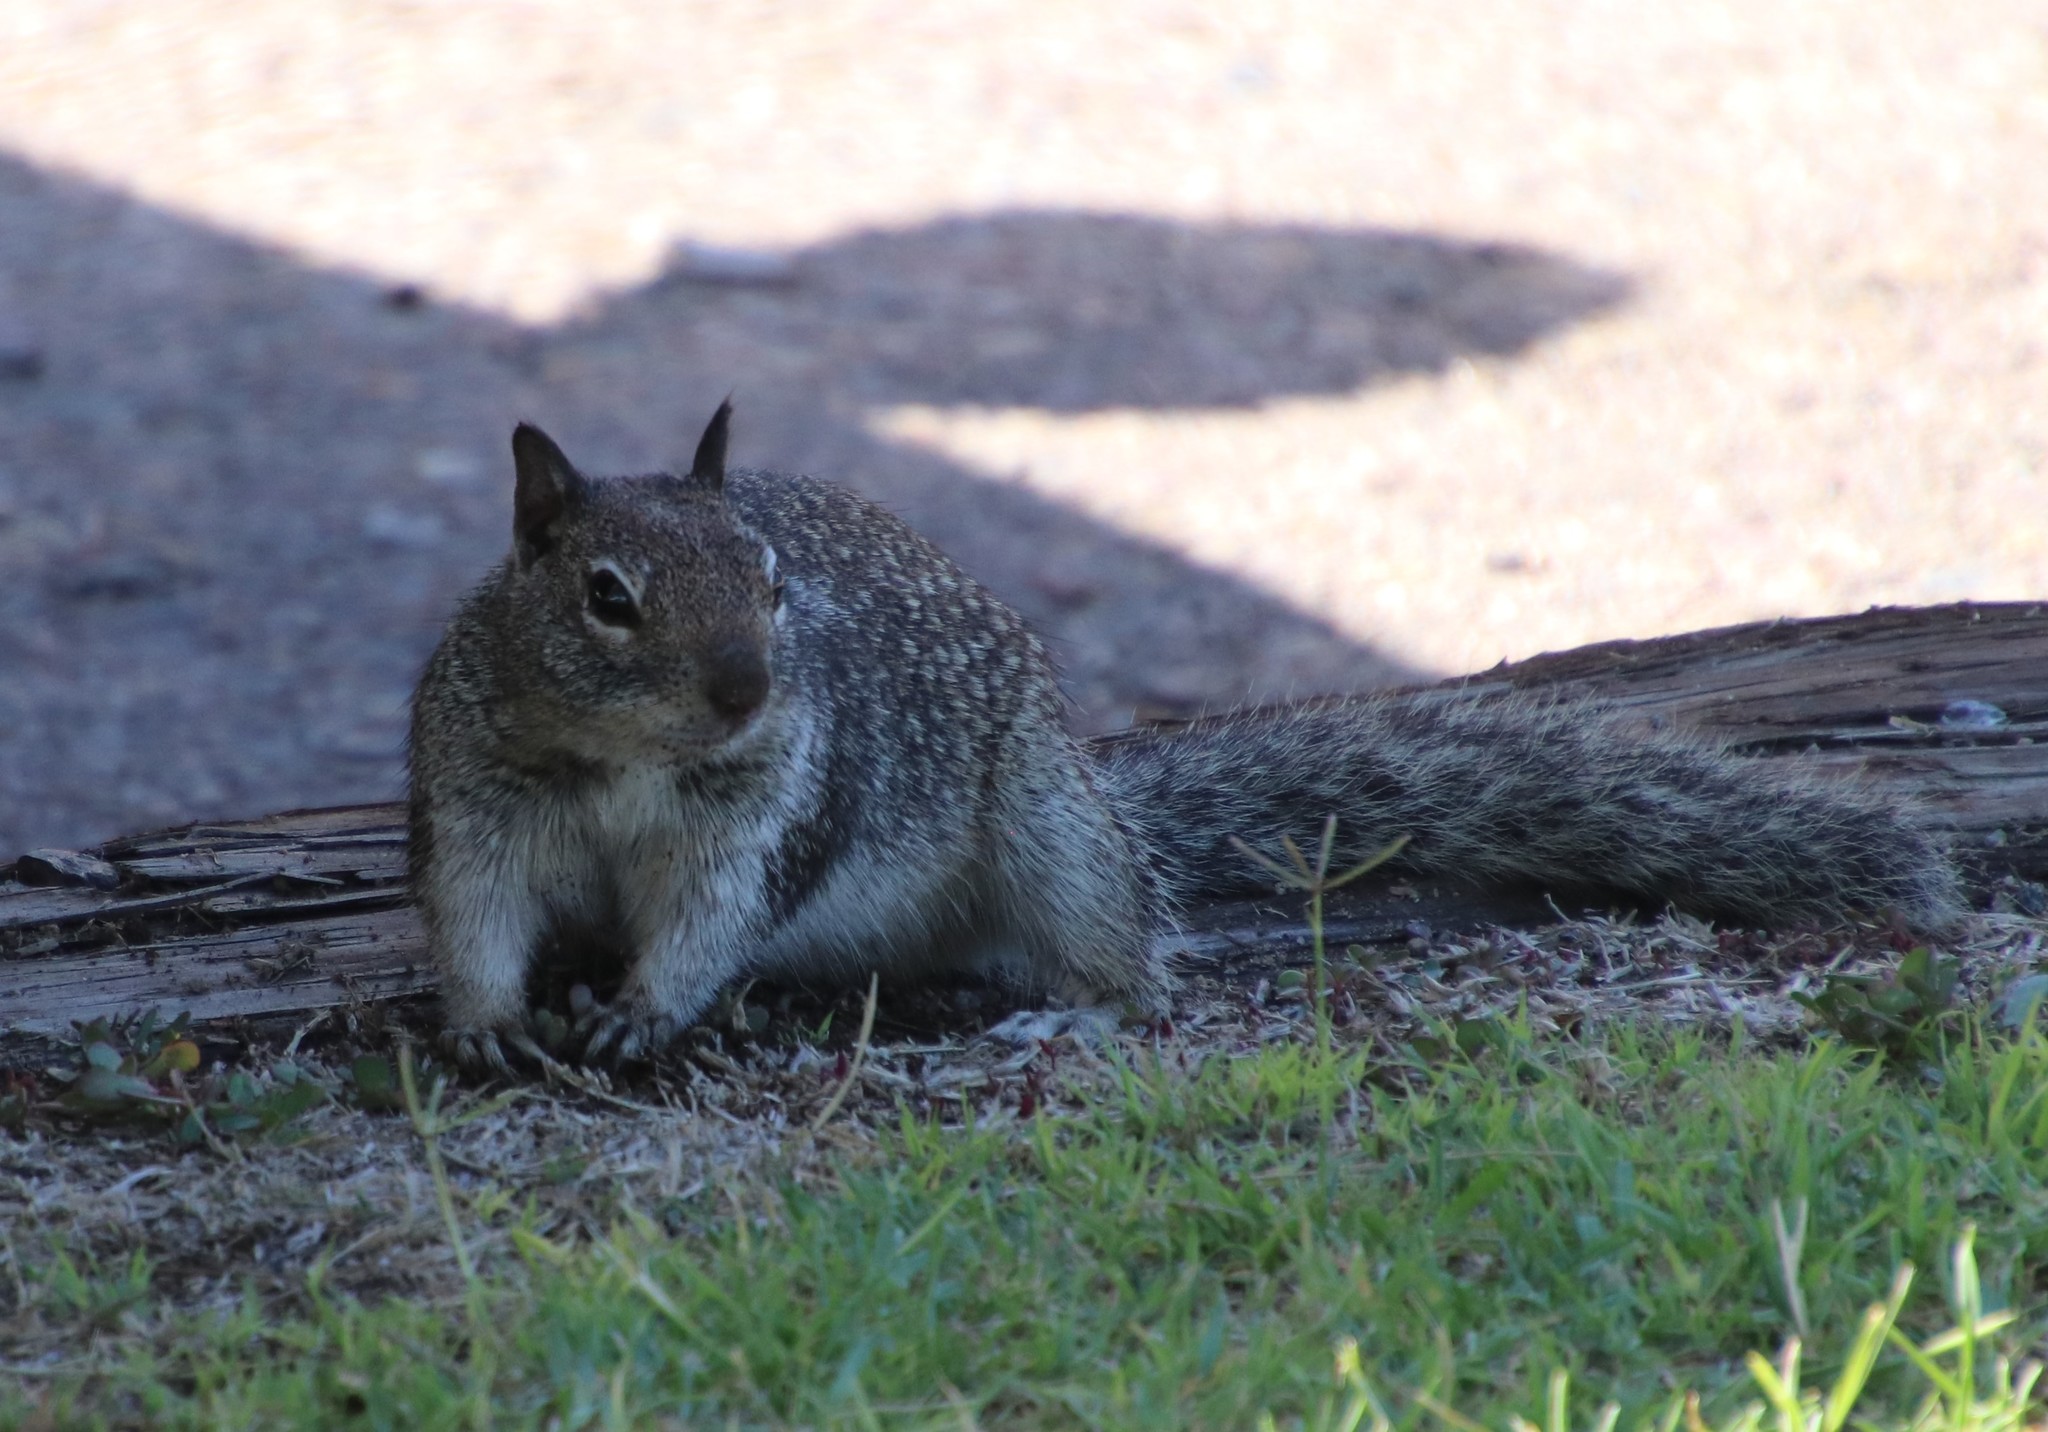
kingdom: Animalia
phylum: Chordata
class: Mammalia
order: Rodentia
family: Sciuridae
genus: Otospermophilus
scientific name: Otospermophilus beecheyi
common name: California ground squirrel
